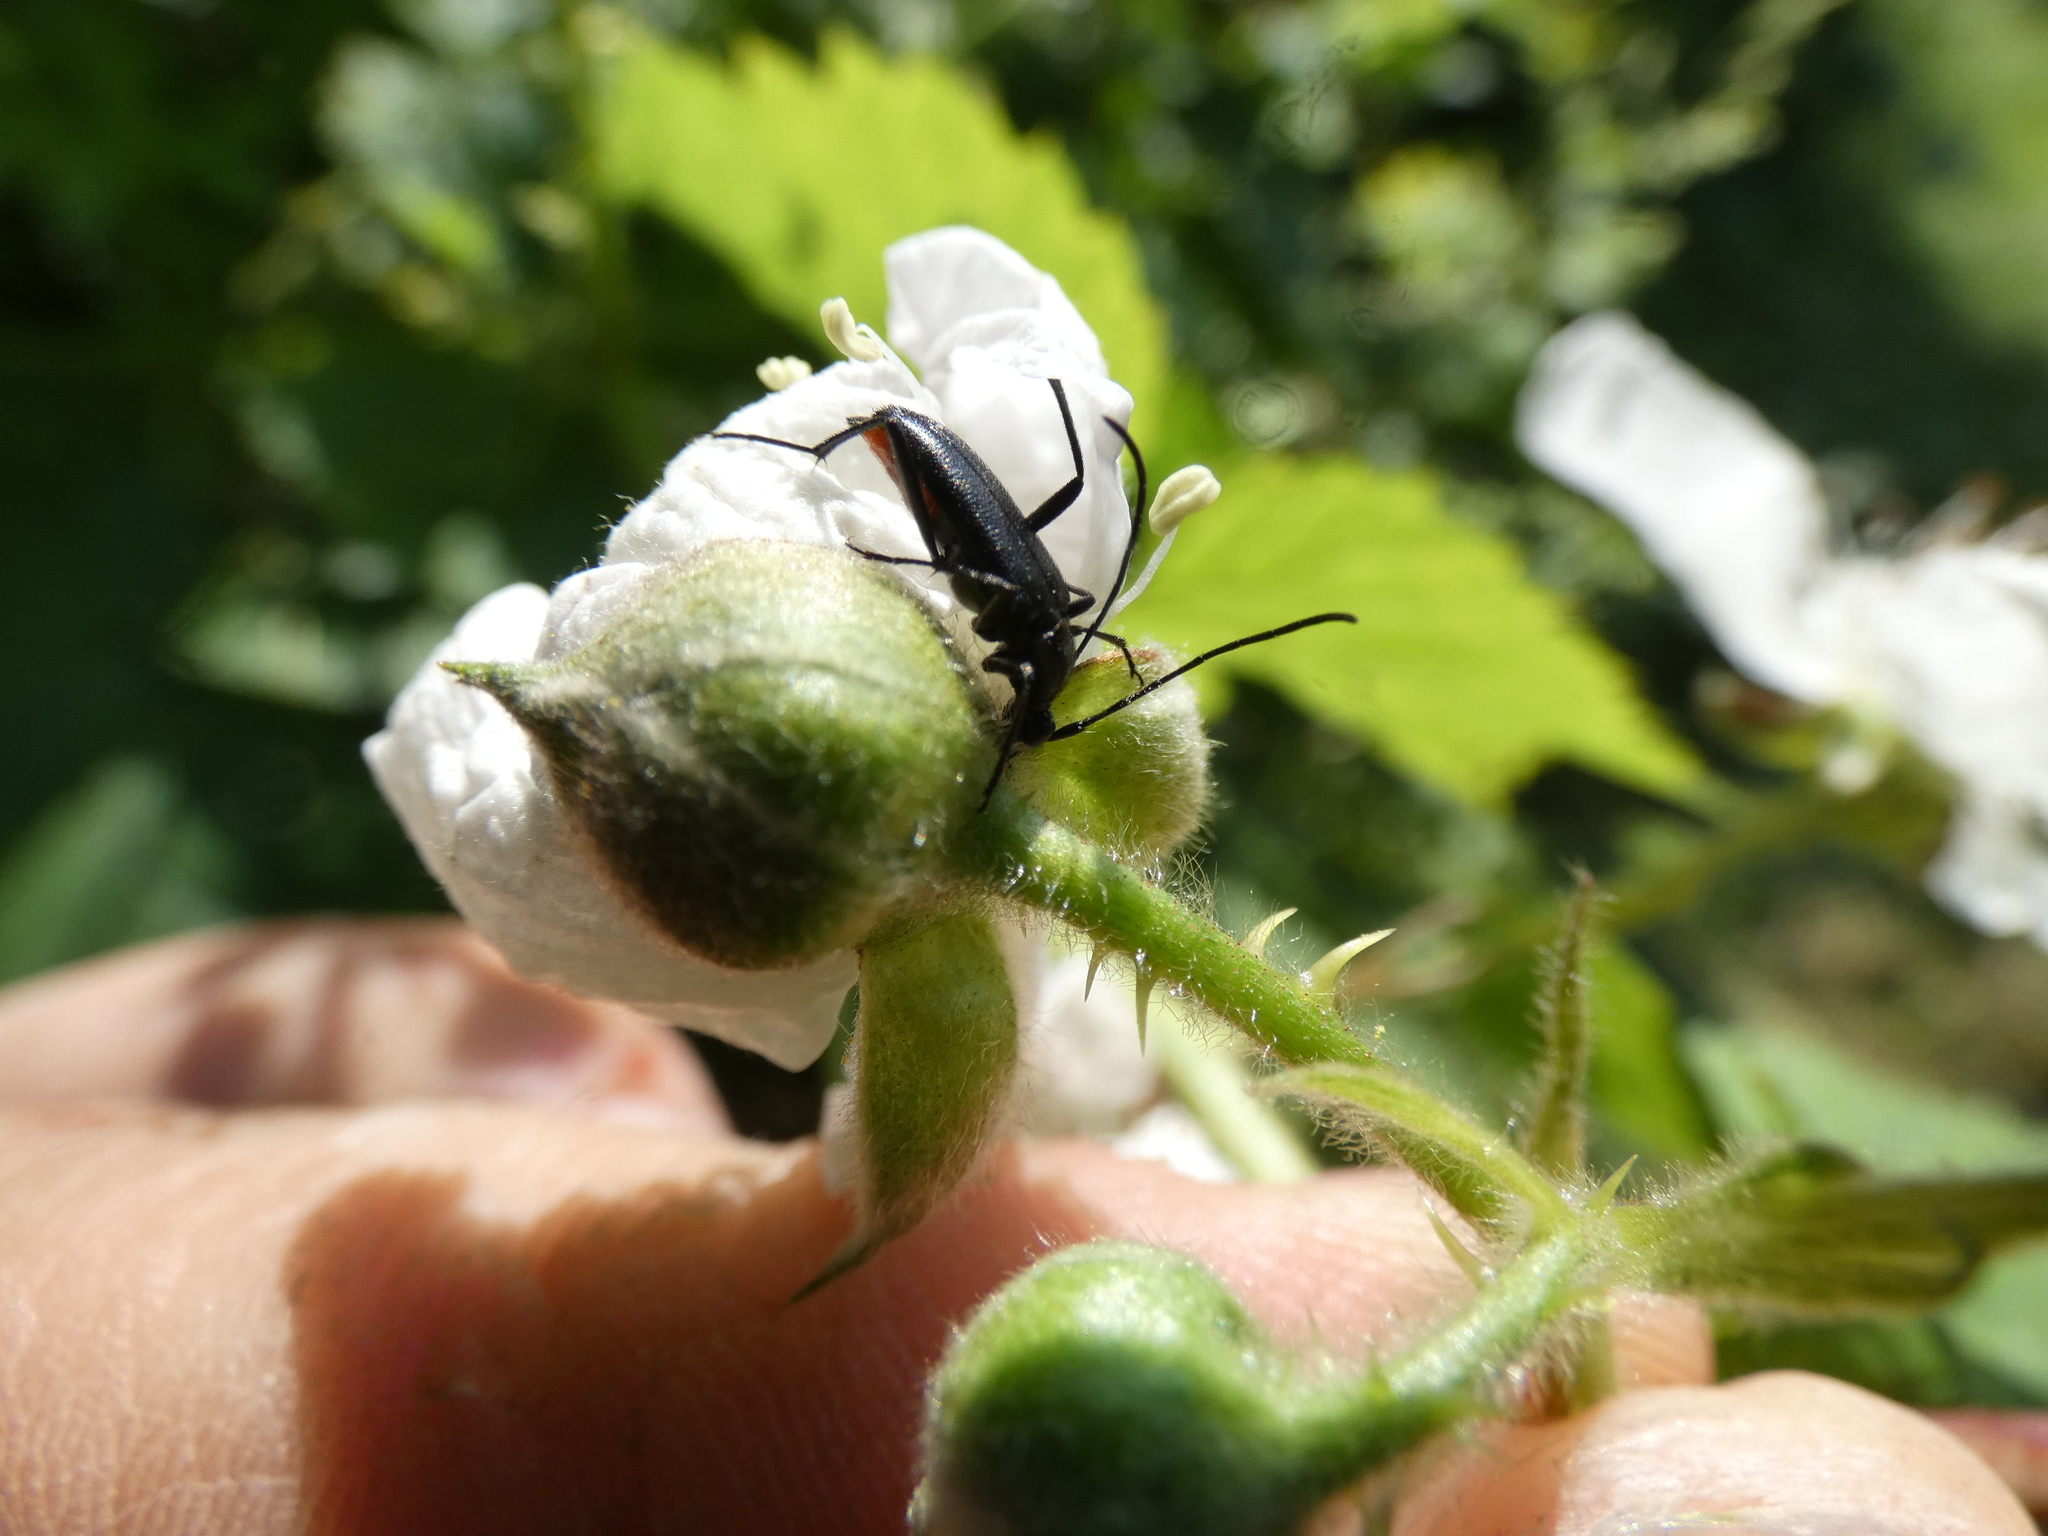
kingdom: Animalia
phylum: Arthropoda
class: Insecta
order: Coleoptera
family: Cerambycidae
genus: Stenurella
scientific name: Stenurella nigra
